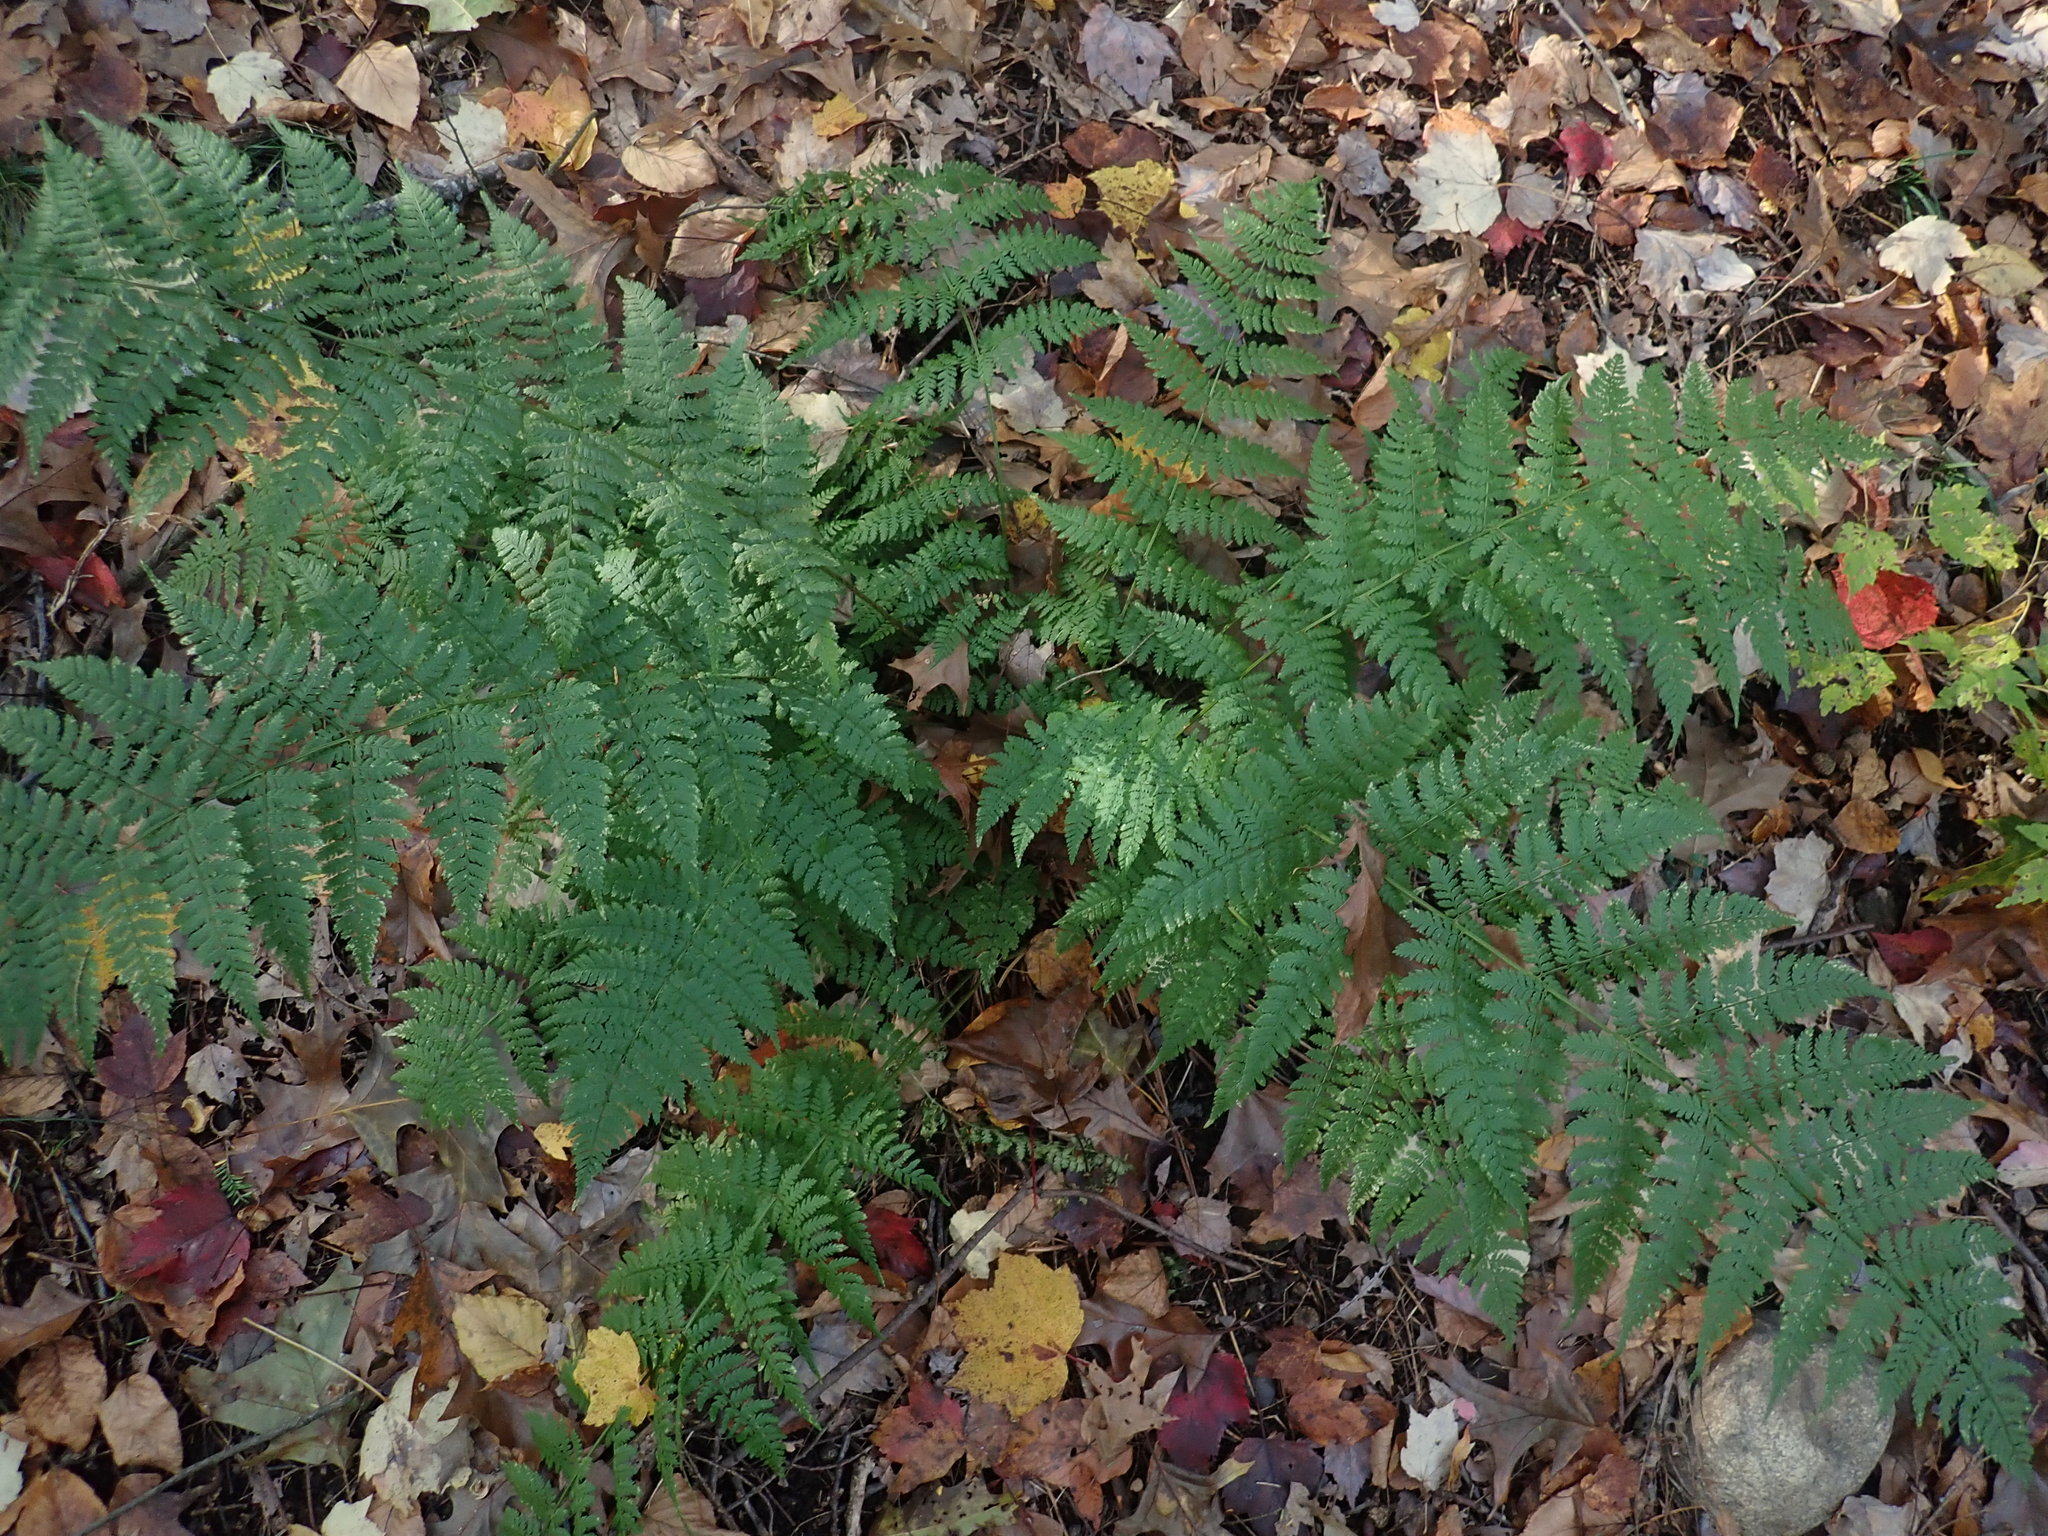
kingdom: Plantae
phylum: Tracheophyta
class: Polypodiopsida
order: Polypodiales
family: Dryopteridaceae
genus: Dryopteris
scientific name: Dryopteris intermedia
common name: Evergreen wood fern
